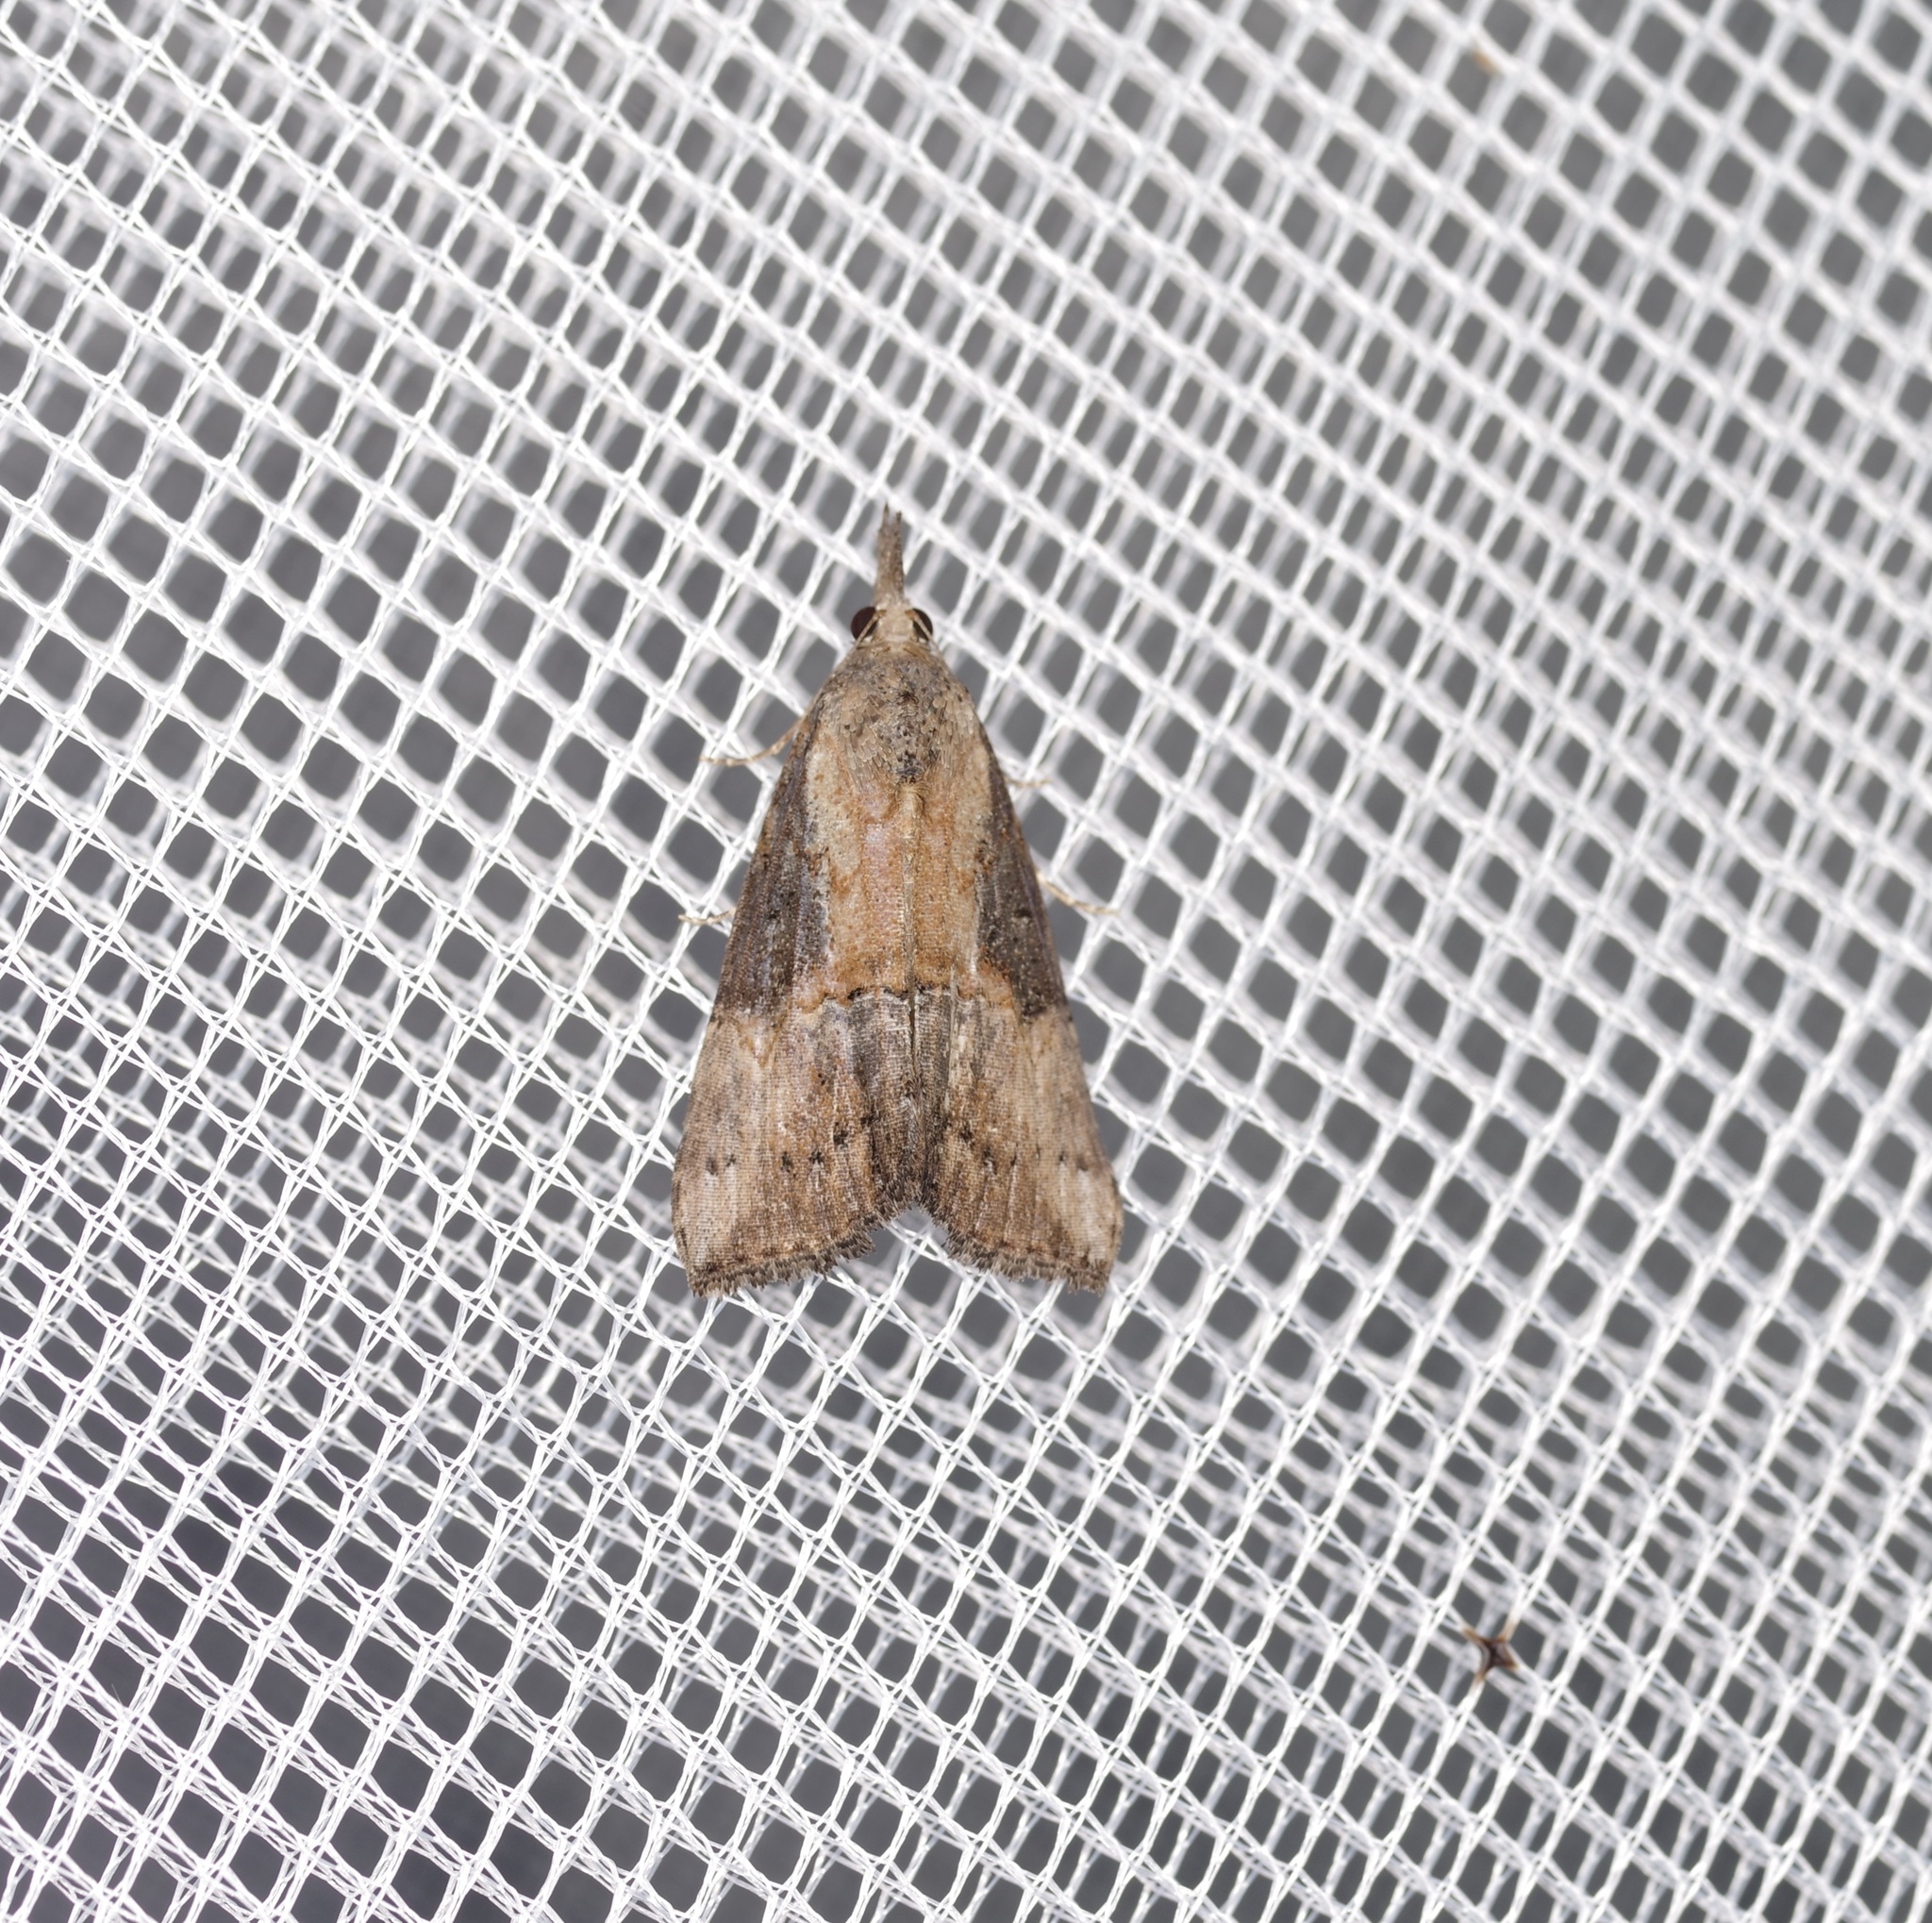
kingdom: Animalia
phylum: Arthropoda
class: Insecta
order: Lepidoptera
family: Erebidae
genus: Hypena
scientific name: Hypena scabra
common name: Green cloverworm
